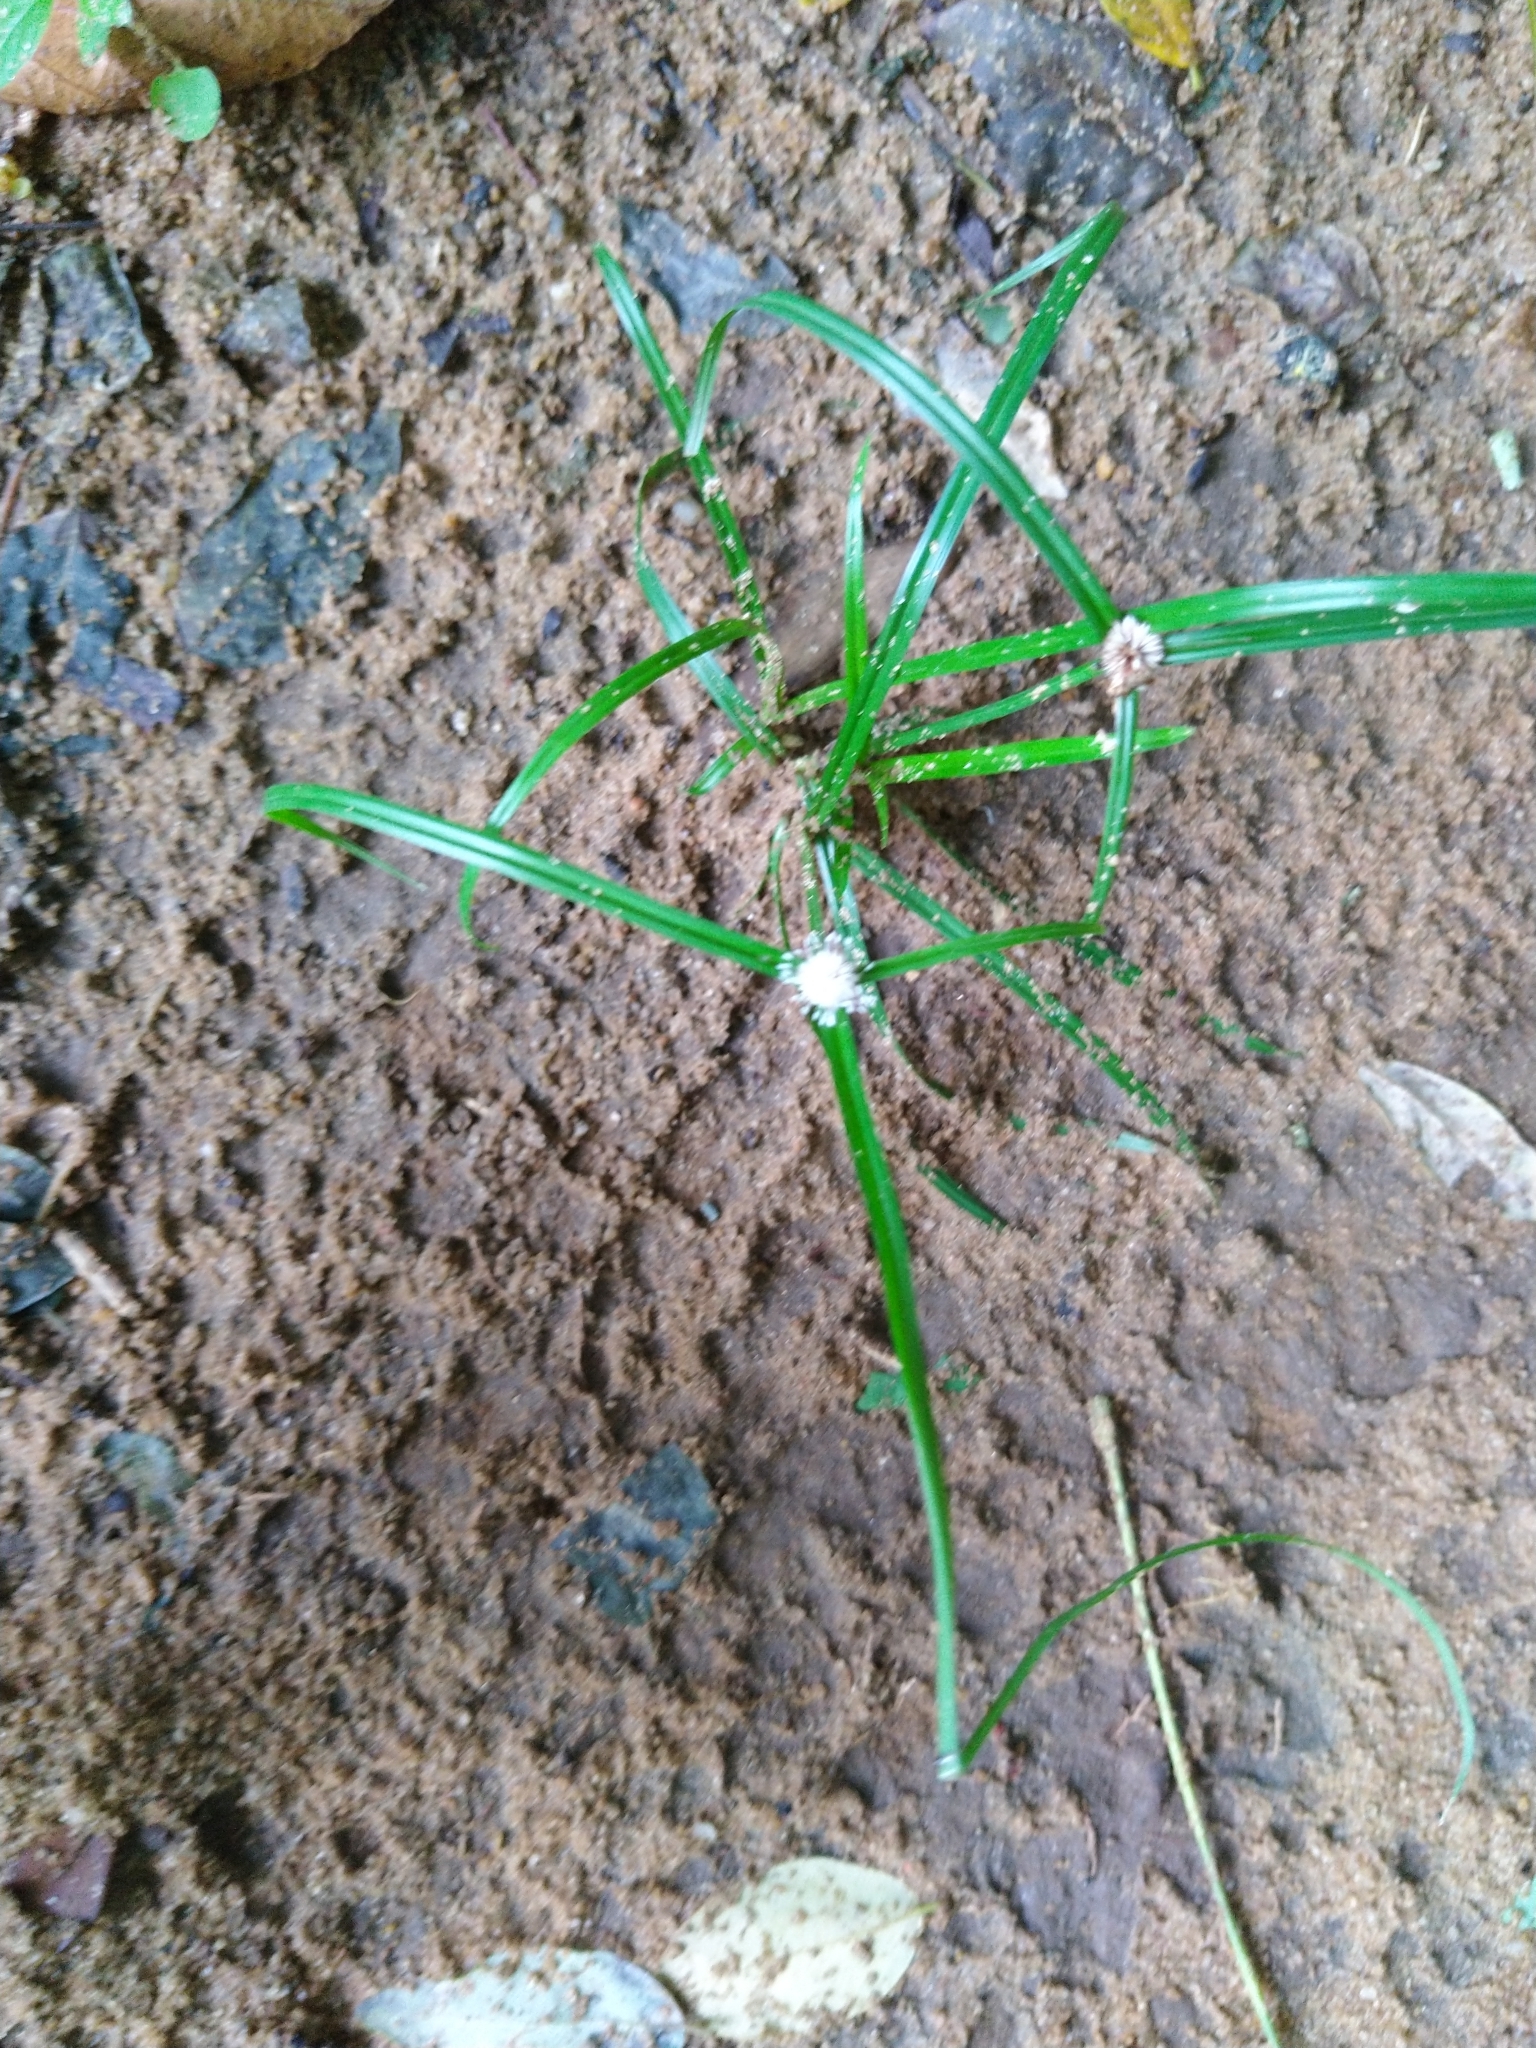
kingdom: Plantae
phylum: Tracheophyta
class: Liliopsida
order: Poales
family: Cyperaceae
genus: Cyperus
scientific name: Cyperus mindorensis
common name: Flatsedge
